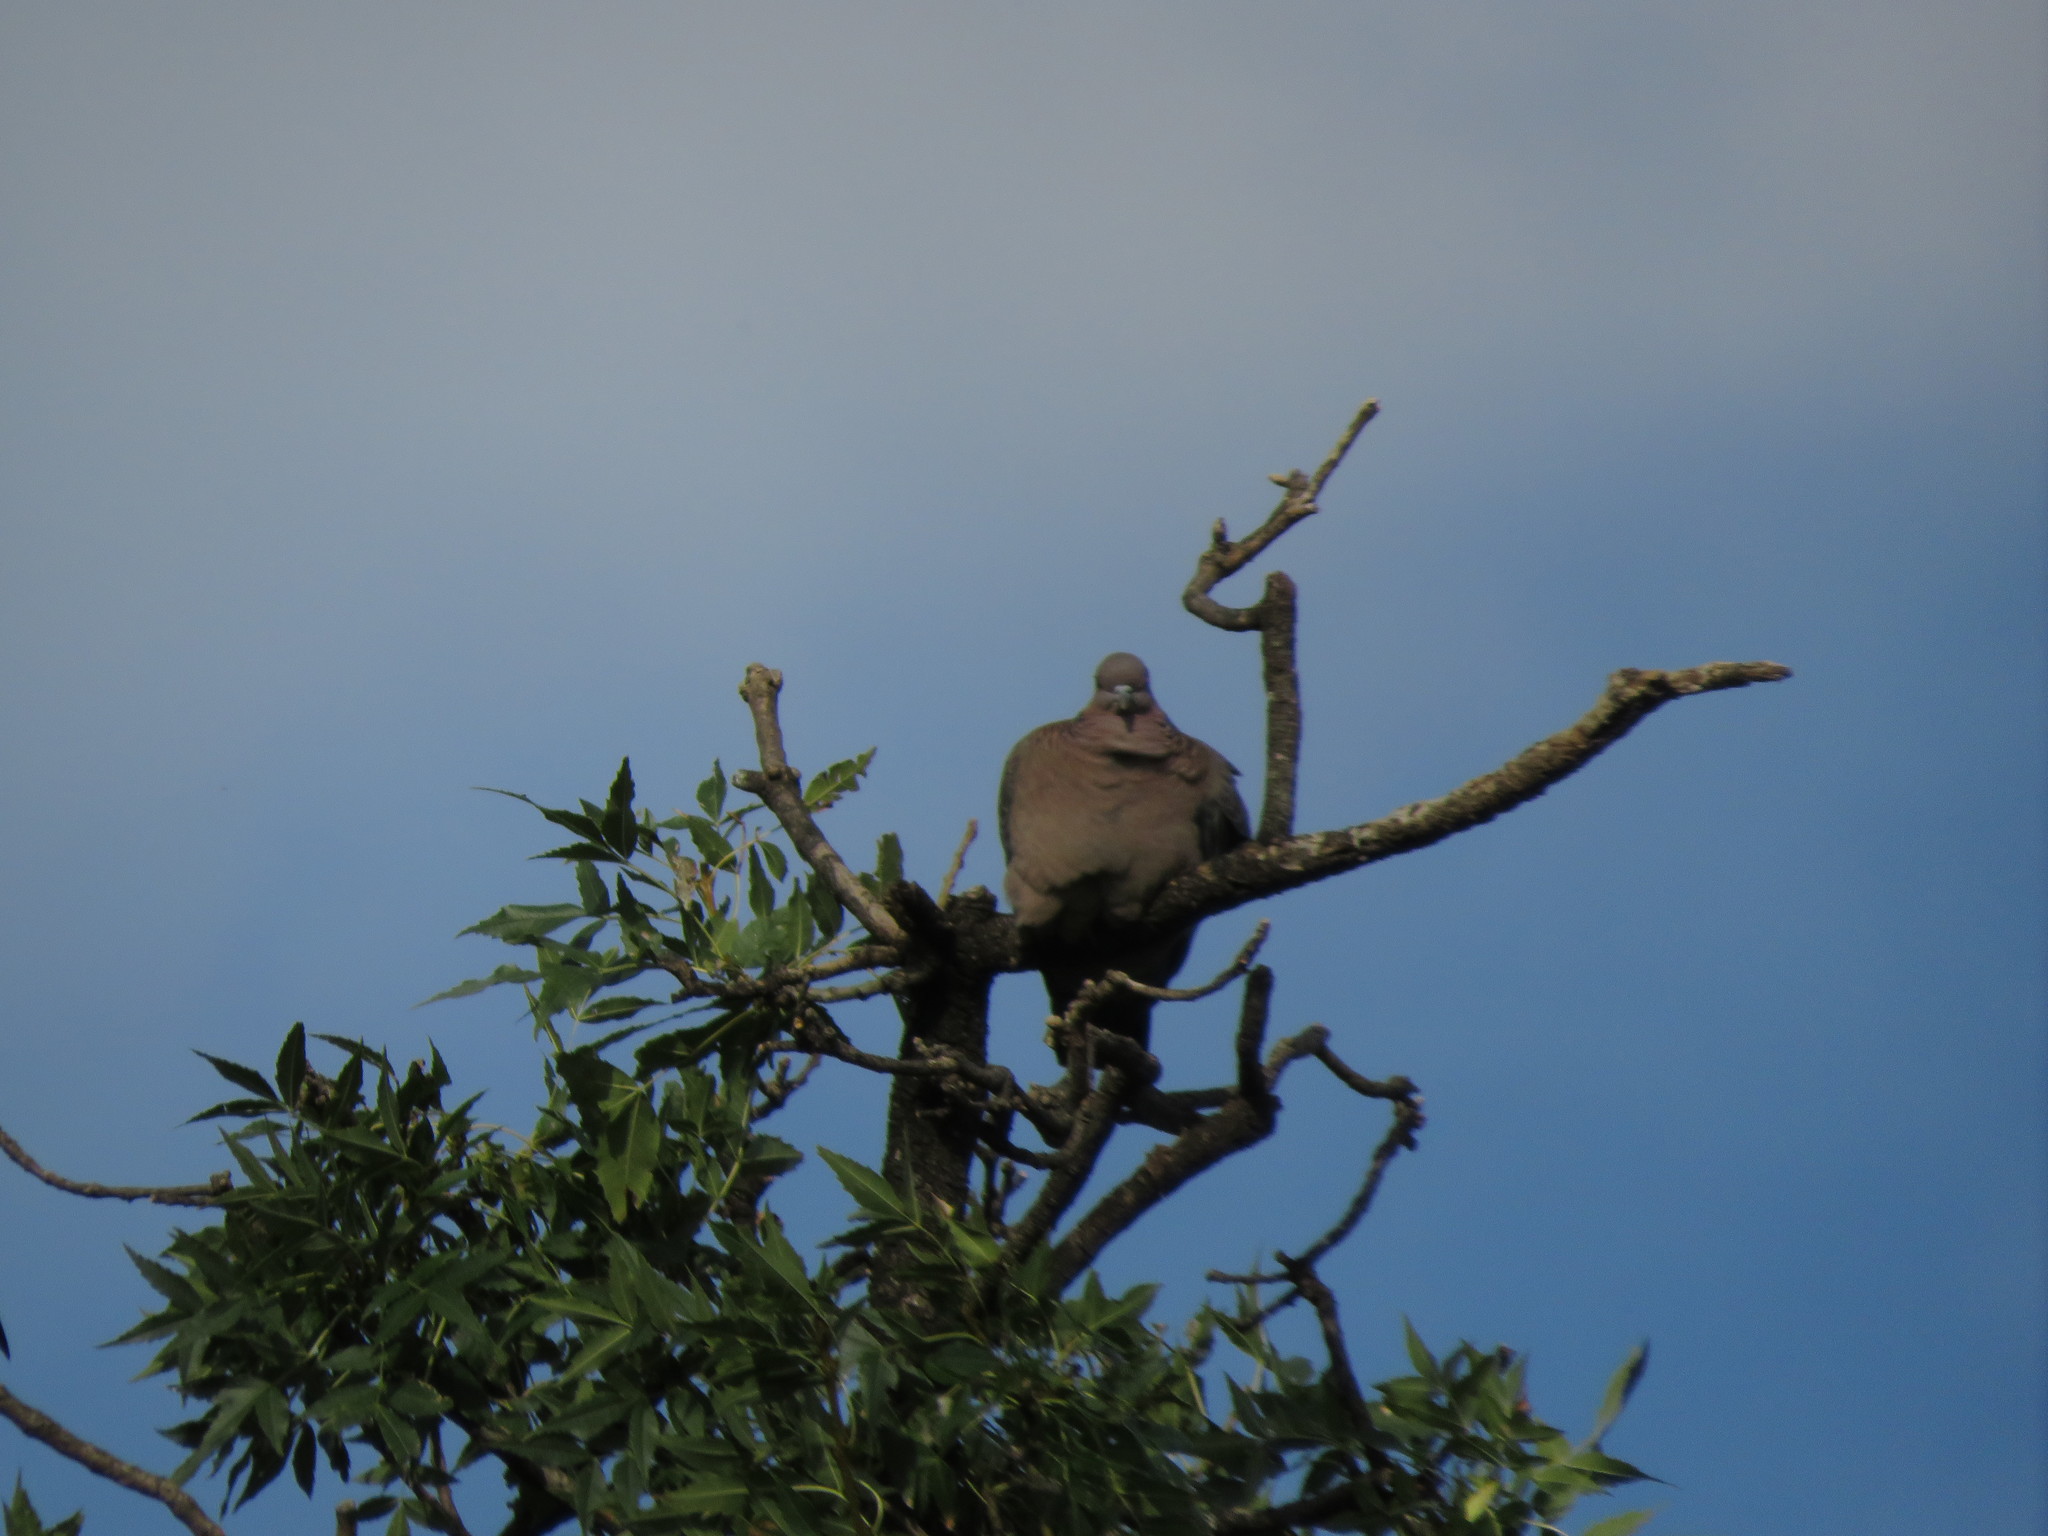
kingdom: Animalia
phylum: Chordata
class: Aves
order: Columbiformes
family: Columbidae
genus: Patagioenas
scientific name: Patagioenas picazuro
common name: Picazuro pigeon
